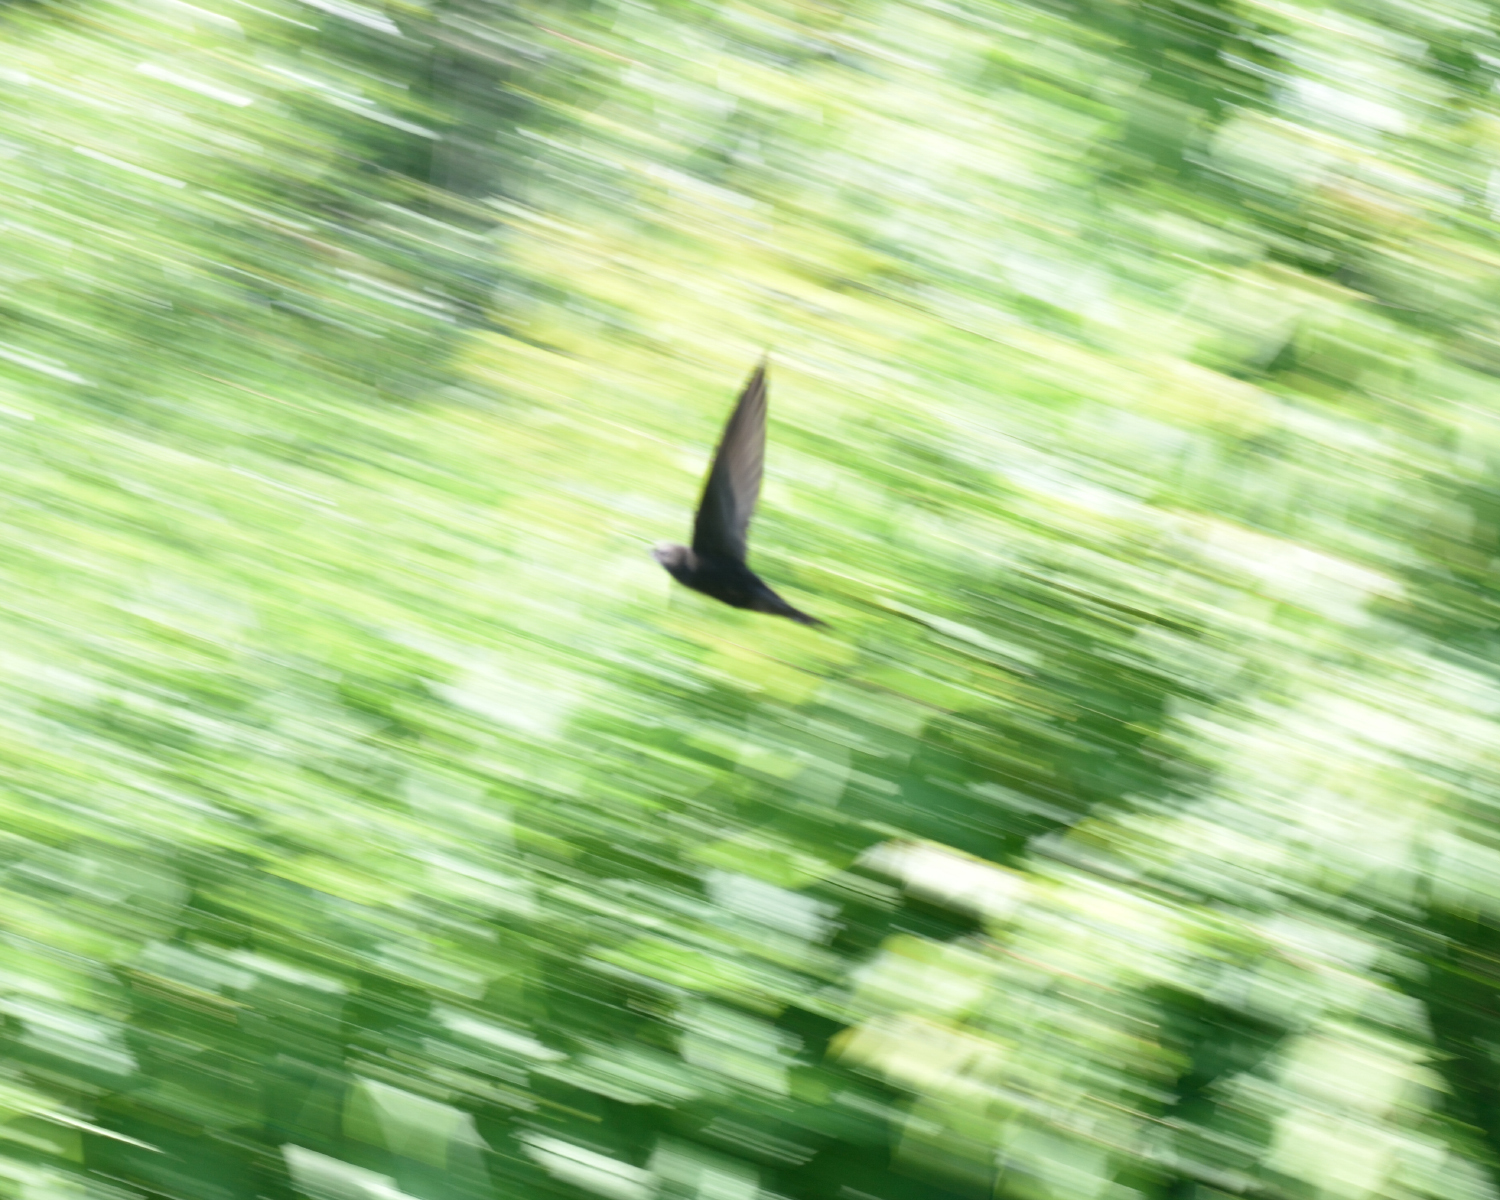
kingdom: Animalia
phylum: Chordata
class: Aves
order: Apodiformes
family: Apodidae
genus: Apus
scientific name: Apus apus
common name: Common swift
